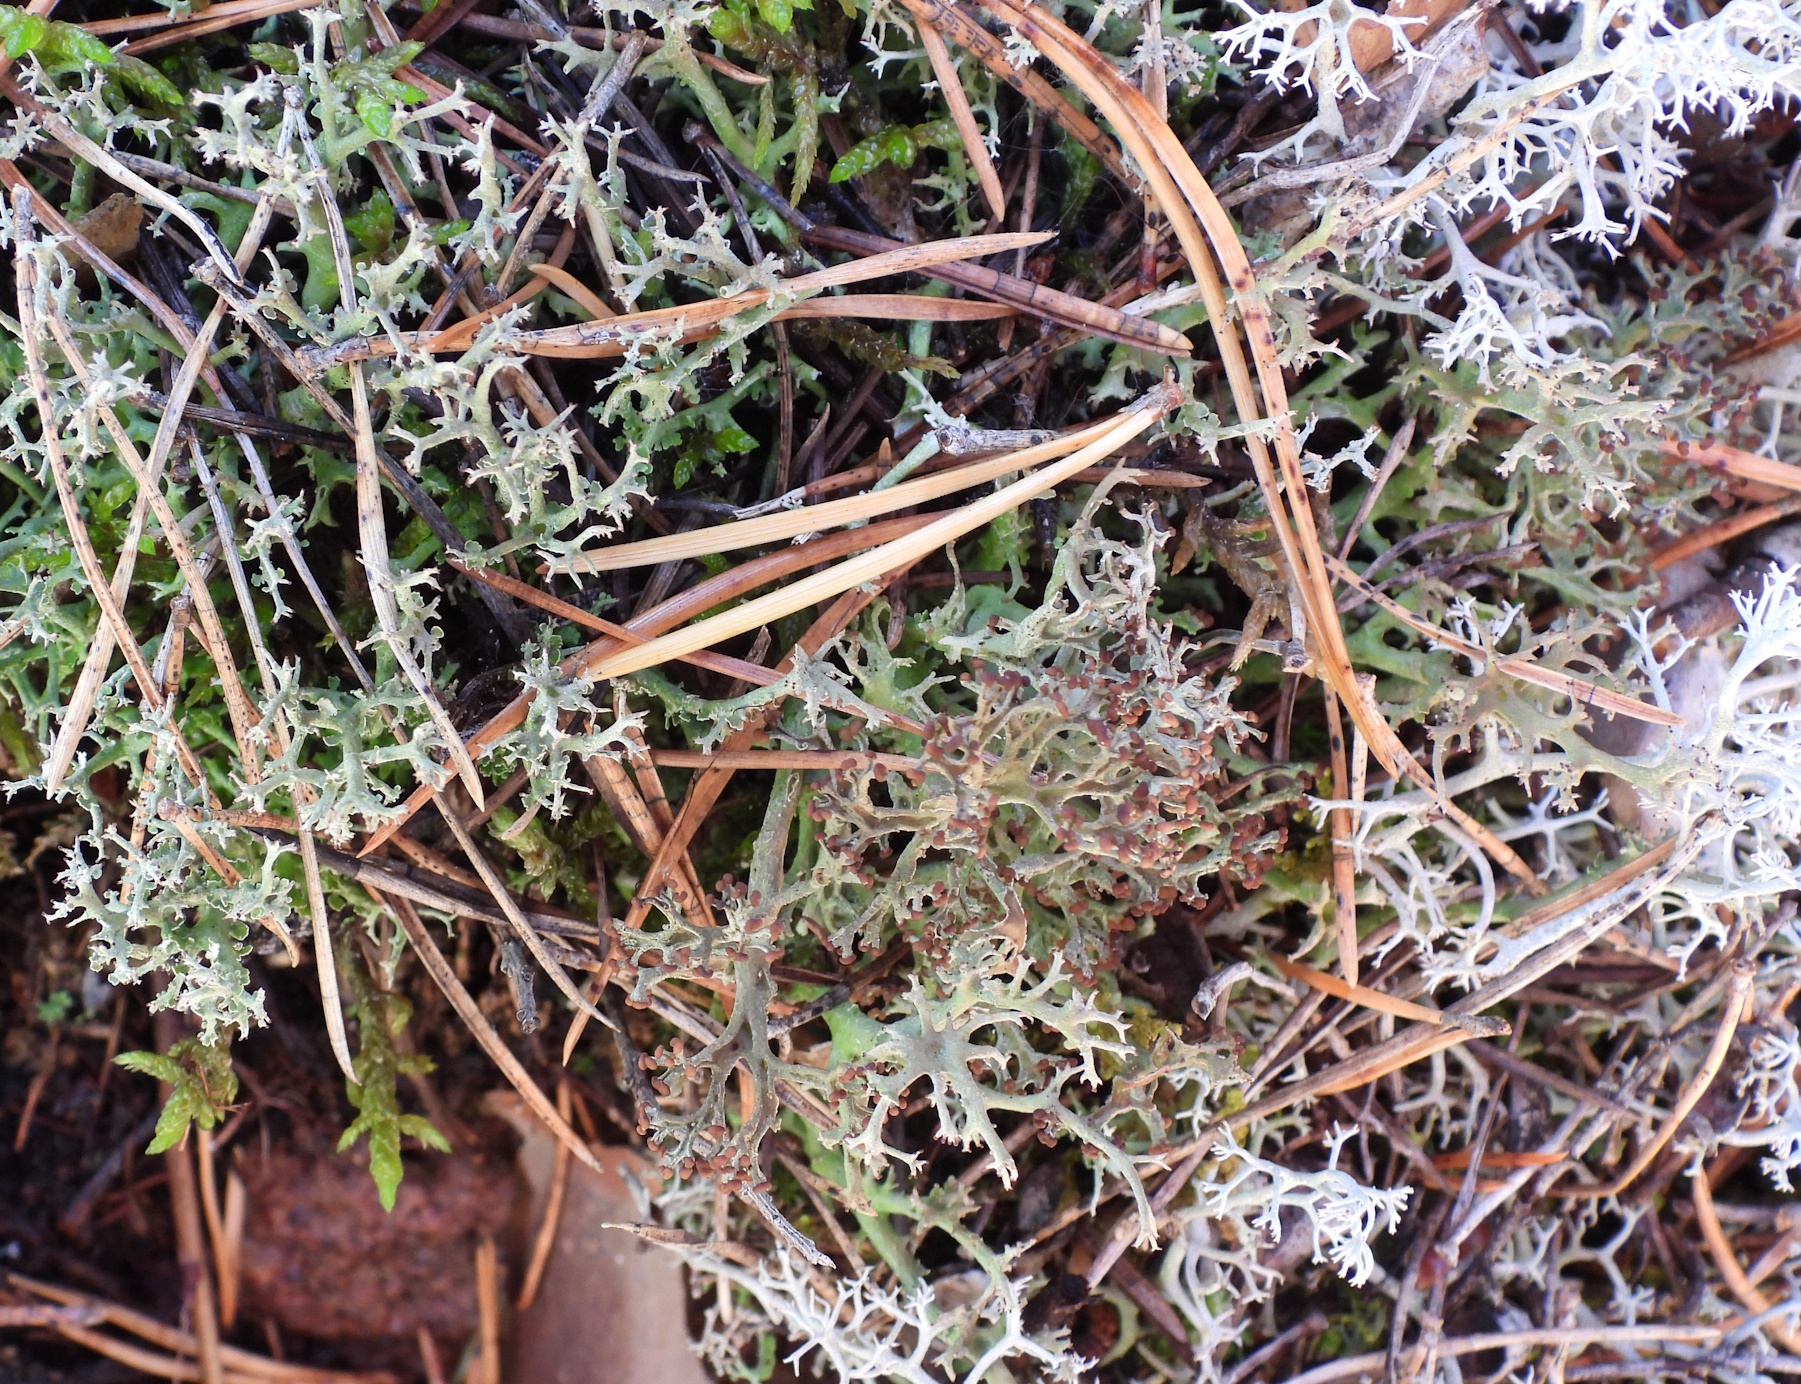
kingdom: Fungi
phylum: Ascomycota
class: Lecanoromycetes
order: Lecanorales
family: Cladoniaceae
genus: Cladonia
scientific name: Cladonia furcata
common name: Many-forked cladonia
